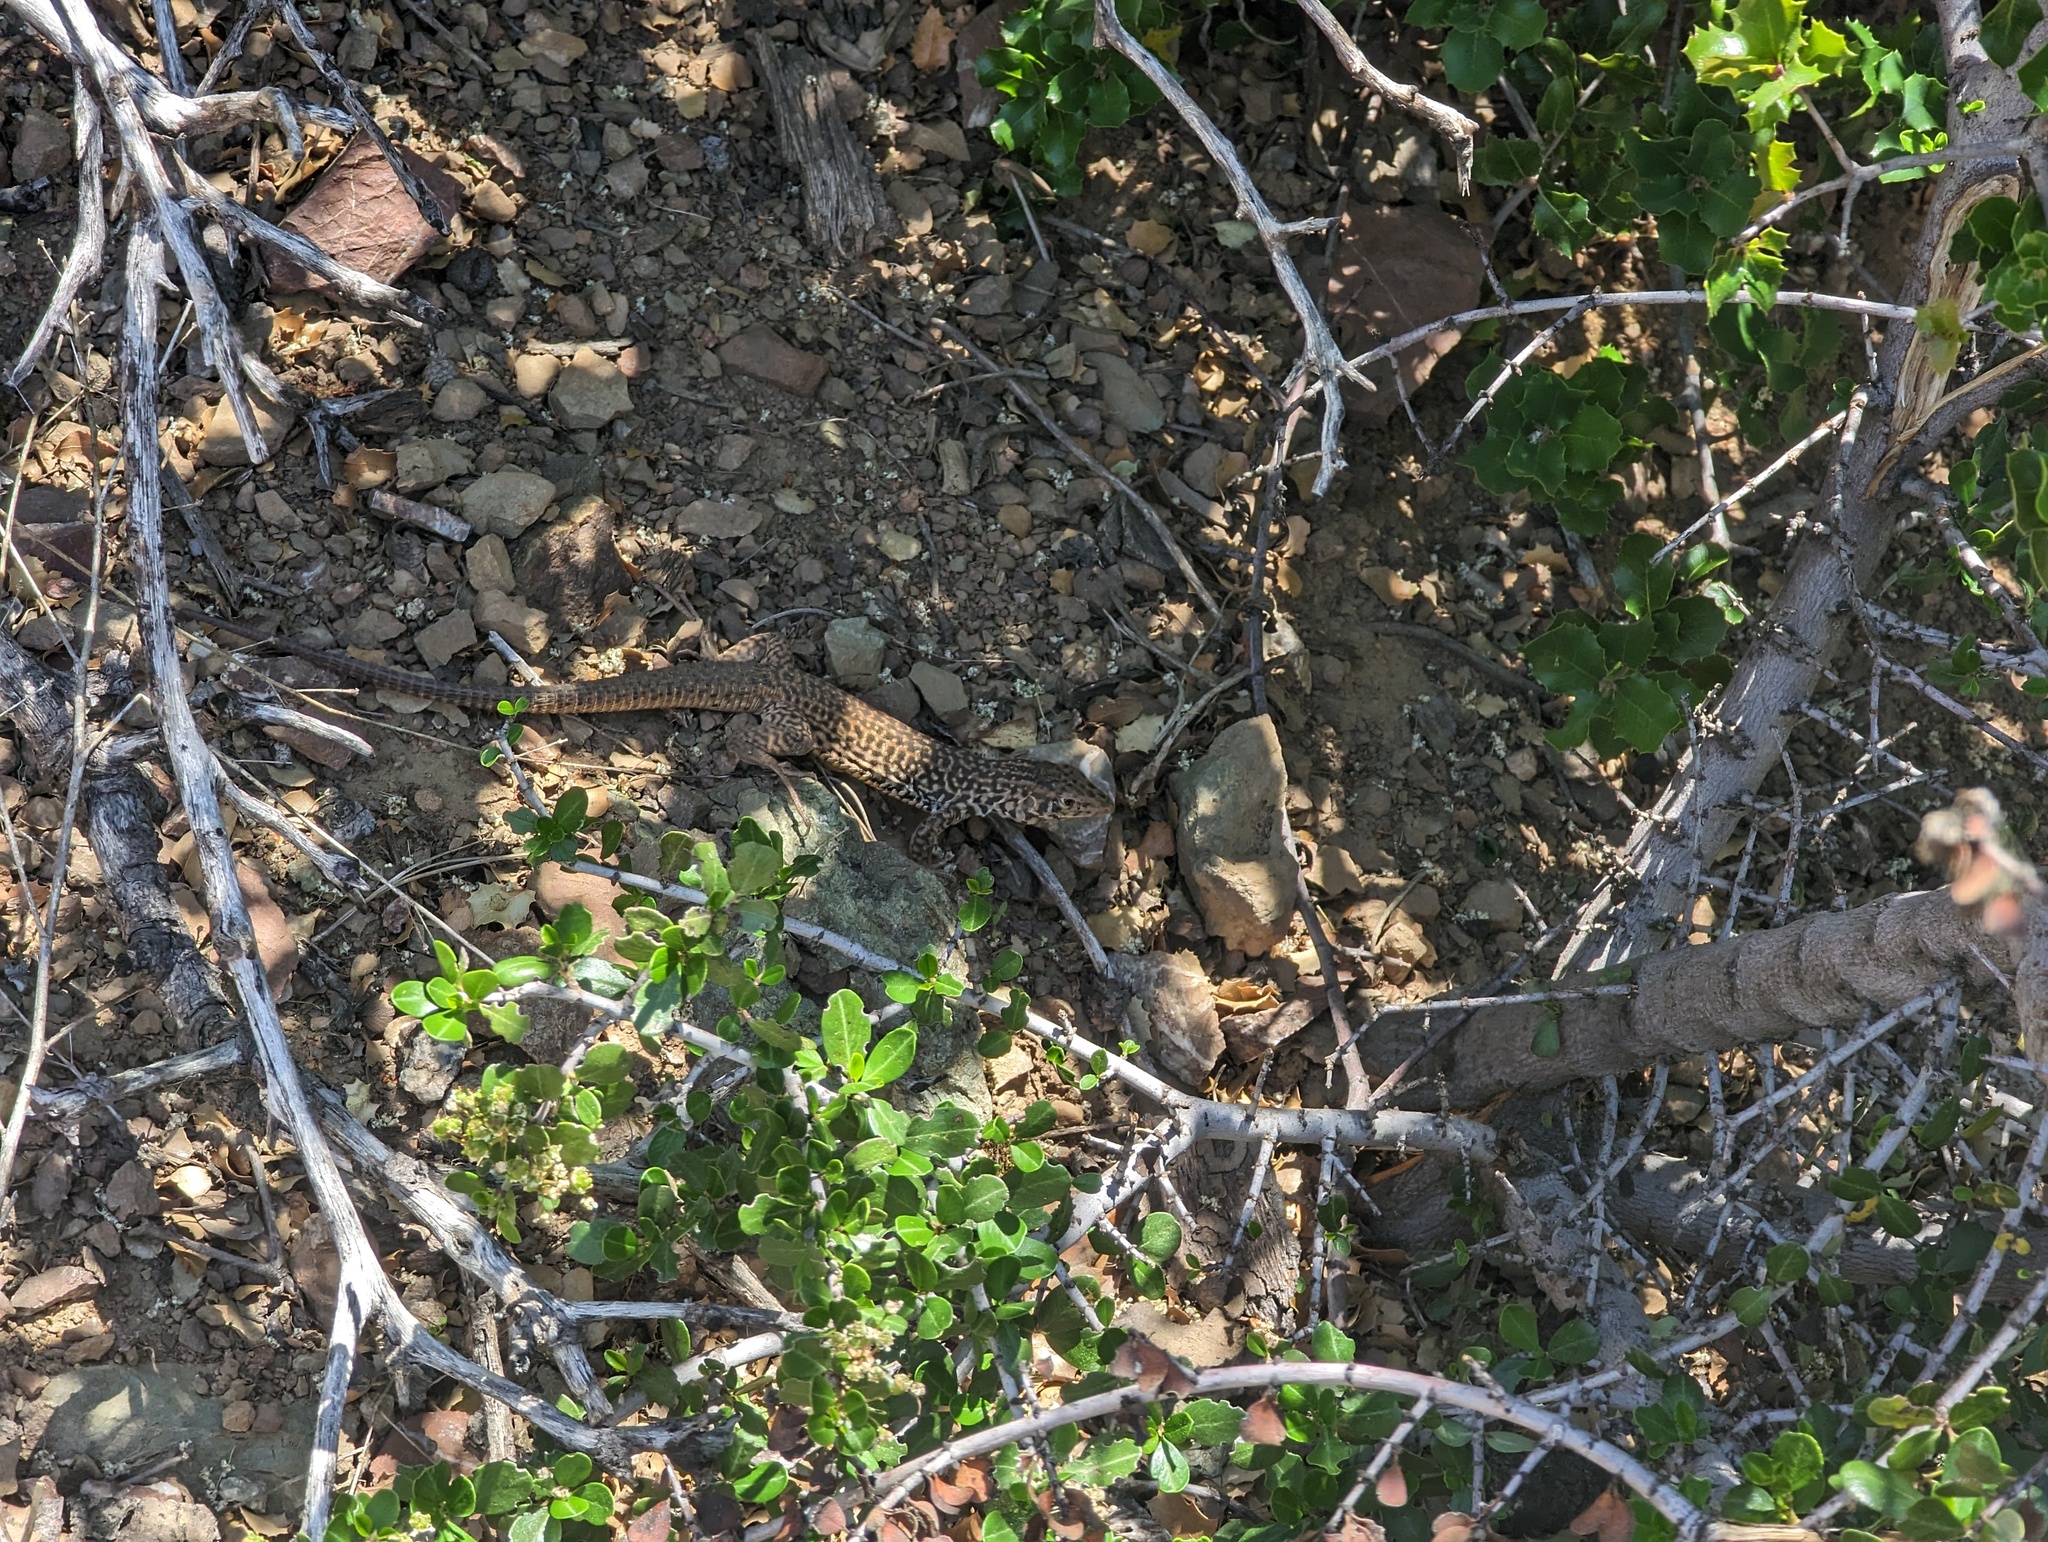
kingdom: Animalia
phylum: Chordata
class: Squamata
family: Teiidae
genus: Aspidoscelis
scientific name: Aspidoscelis tigris
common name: Tiger whiptail
